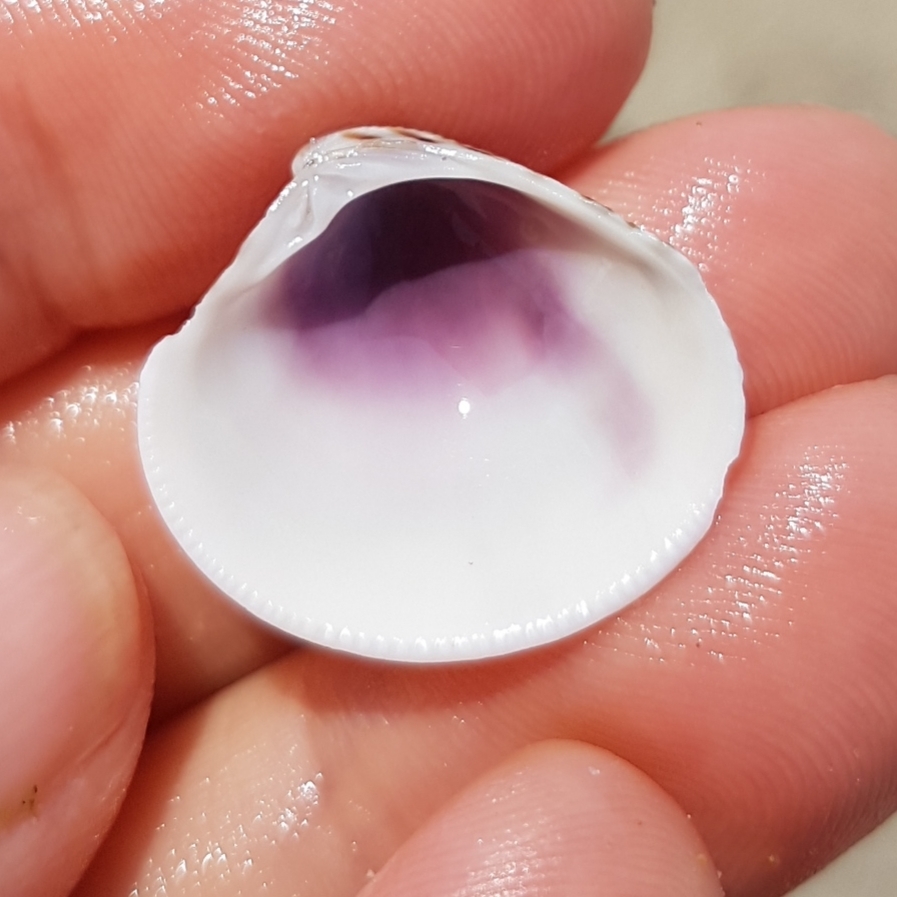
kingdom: Animalia
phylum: Mollusca
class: Bivalvia
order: Venerida
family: Veneridae
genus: Chamelea
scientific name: Chamelea gallina
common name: Chicken venus
